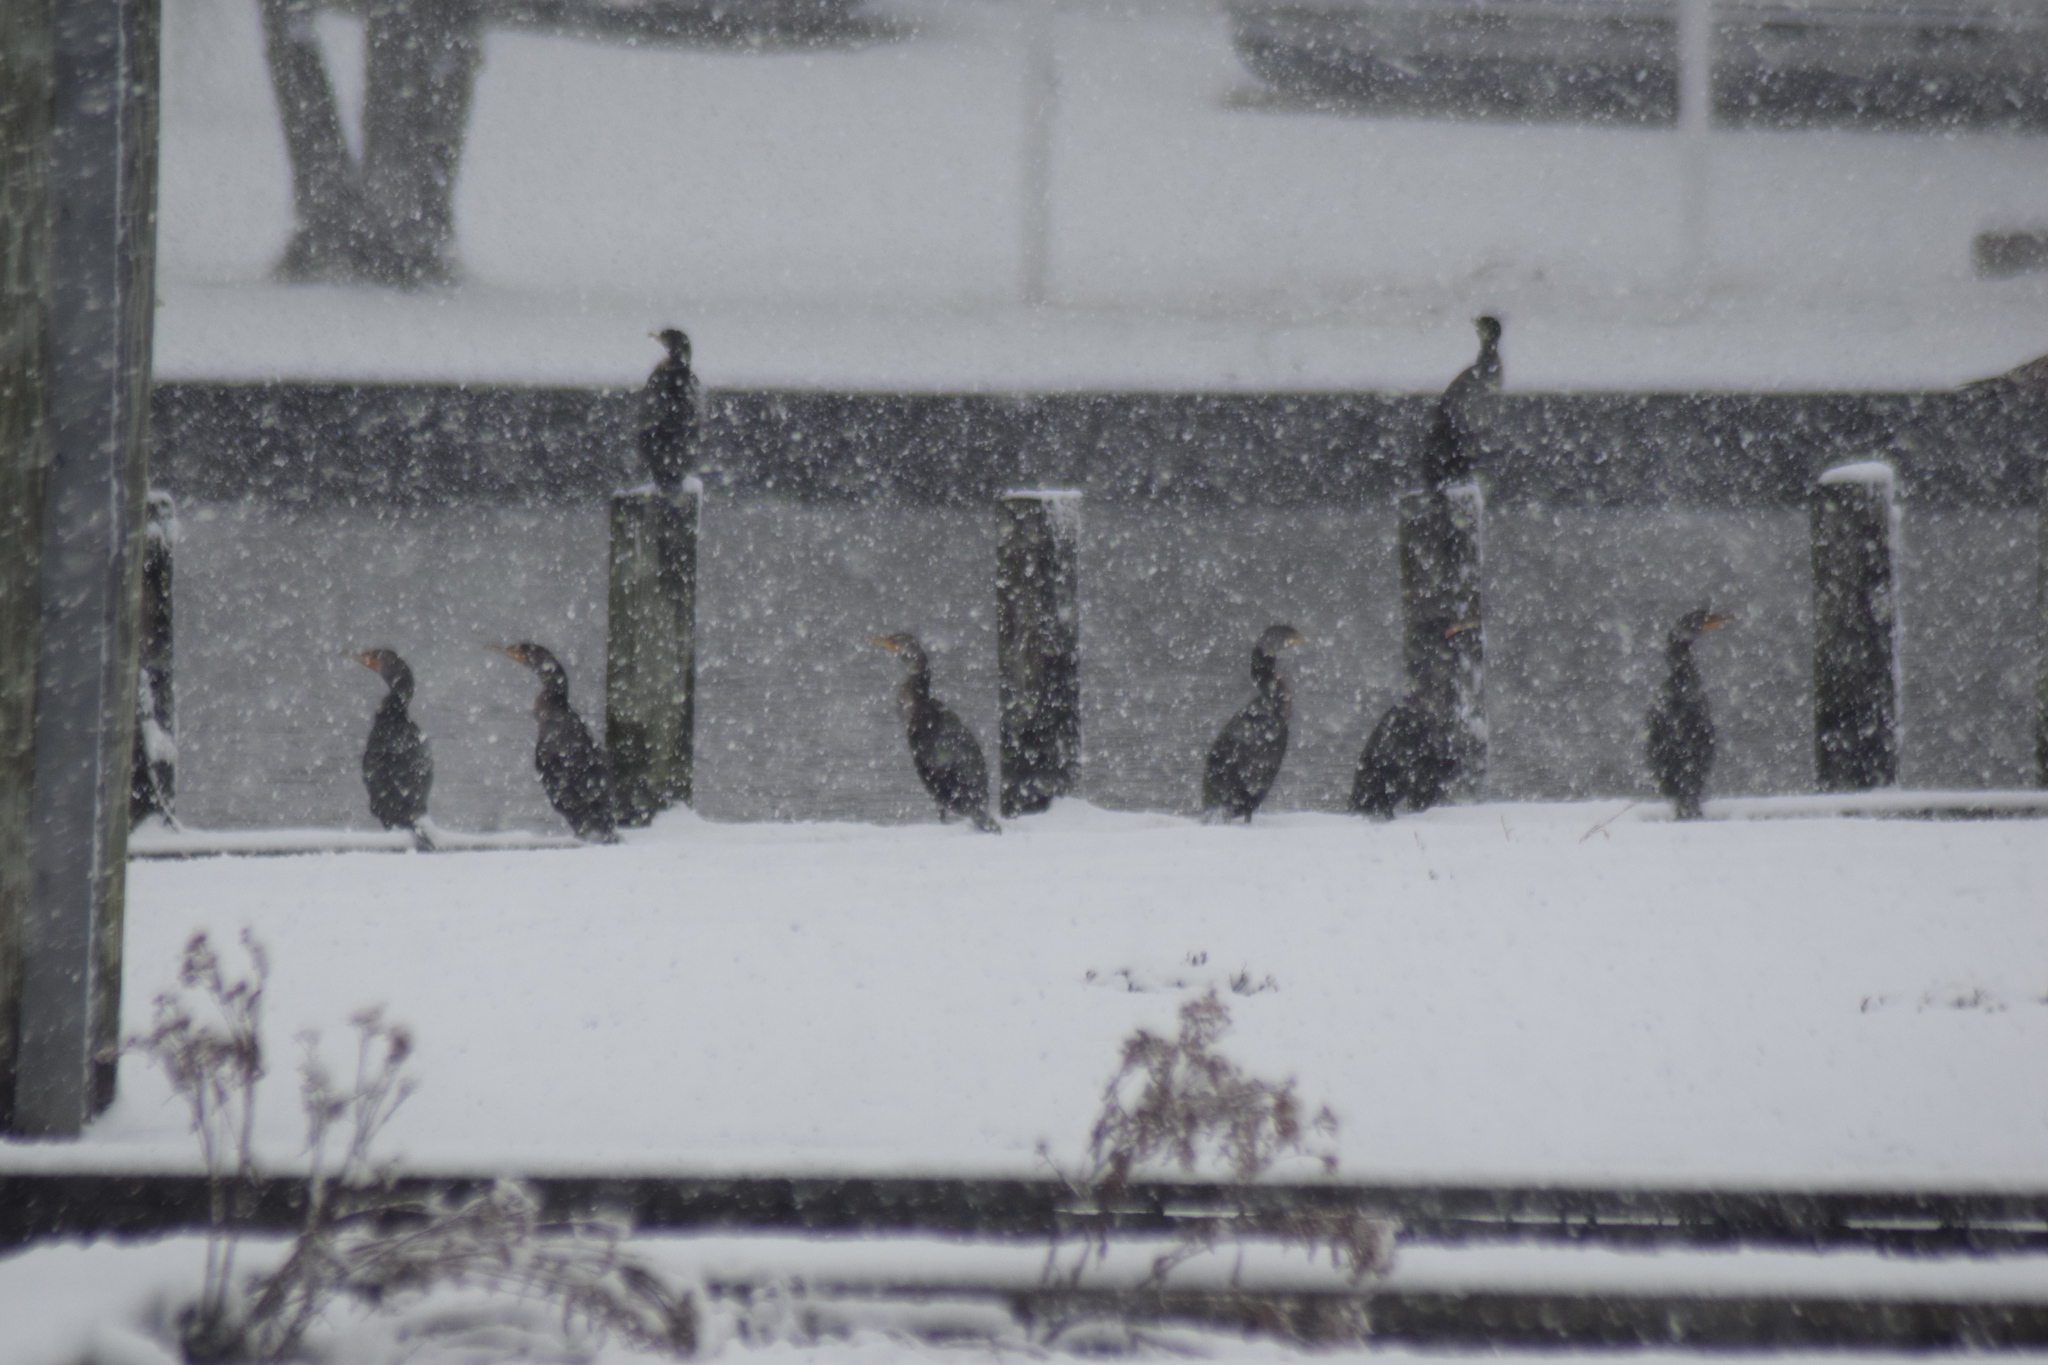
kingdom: Animalia
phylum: Chordata
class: Aves
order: Suliformes
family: Phalacrocoracidae
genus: Phalacrocorax
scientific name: Phalacrocorax auritus
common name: Double-crested cormorant
